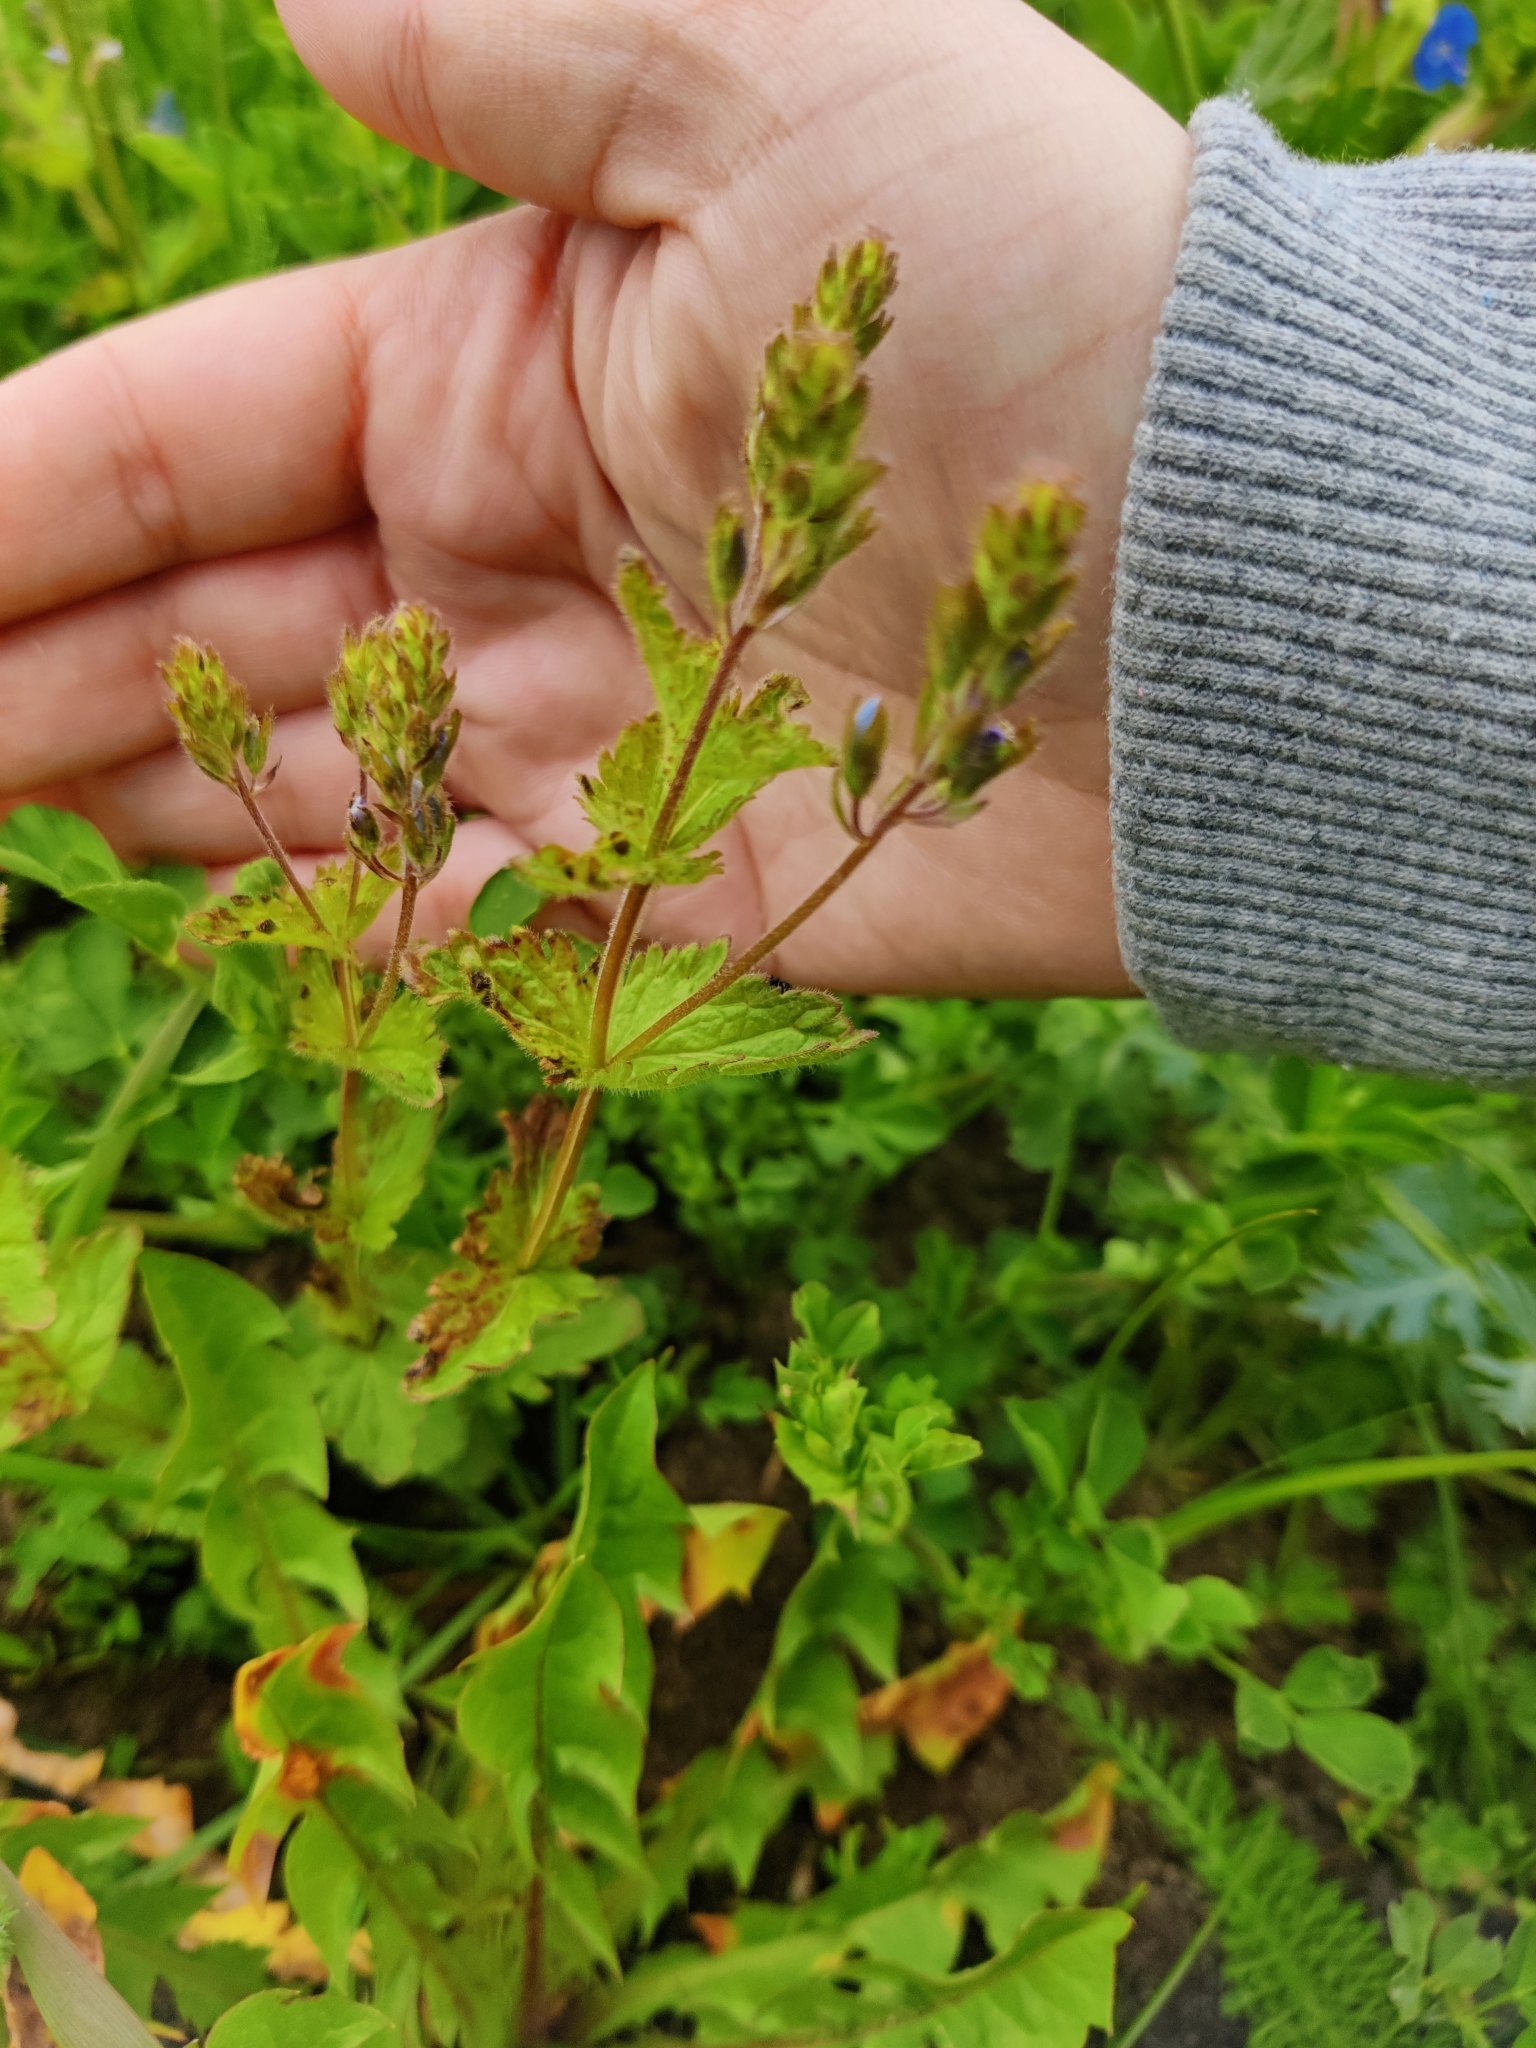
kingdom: Plantae
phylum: Tracheophyta
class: Magnoliopsida
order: Lamiales
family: Plantaginaceae
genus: Veronica
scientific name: Veronica chamaedrys
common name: Germander speedwell
